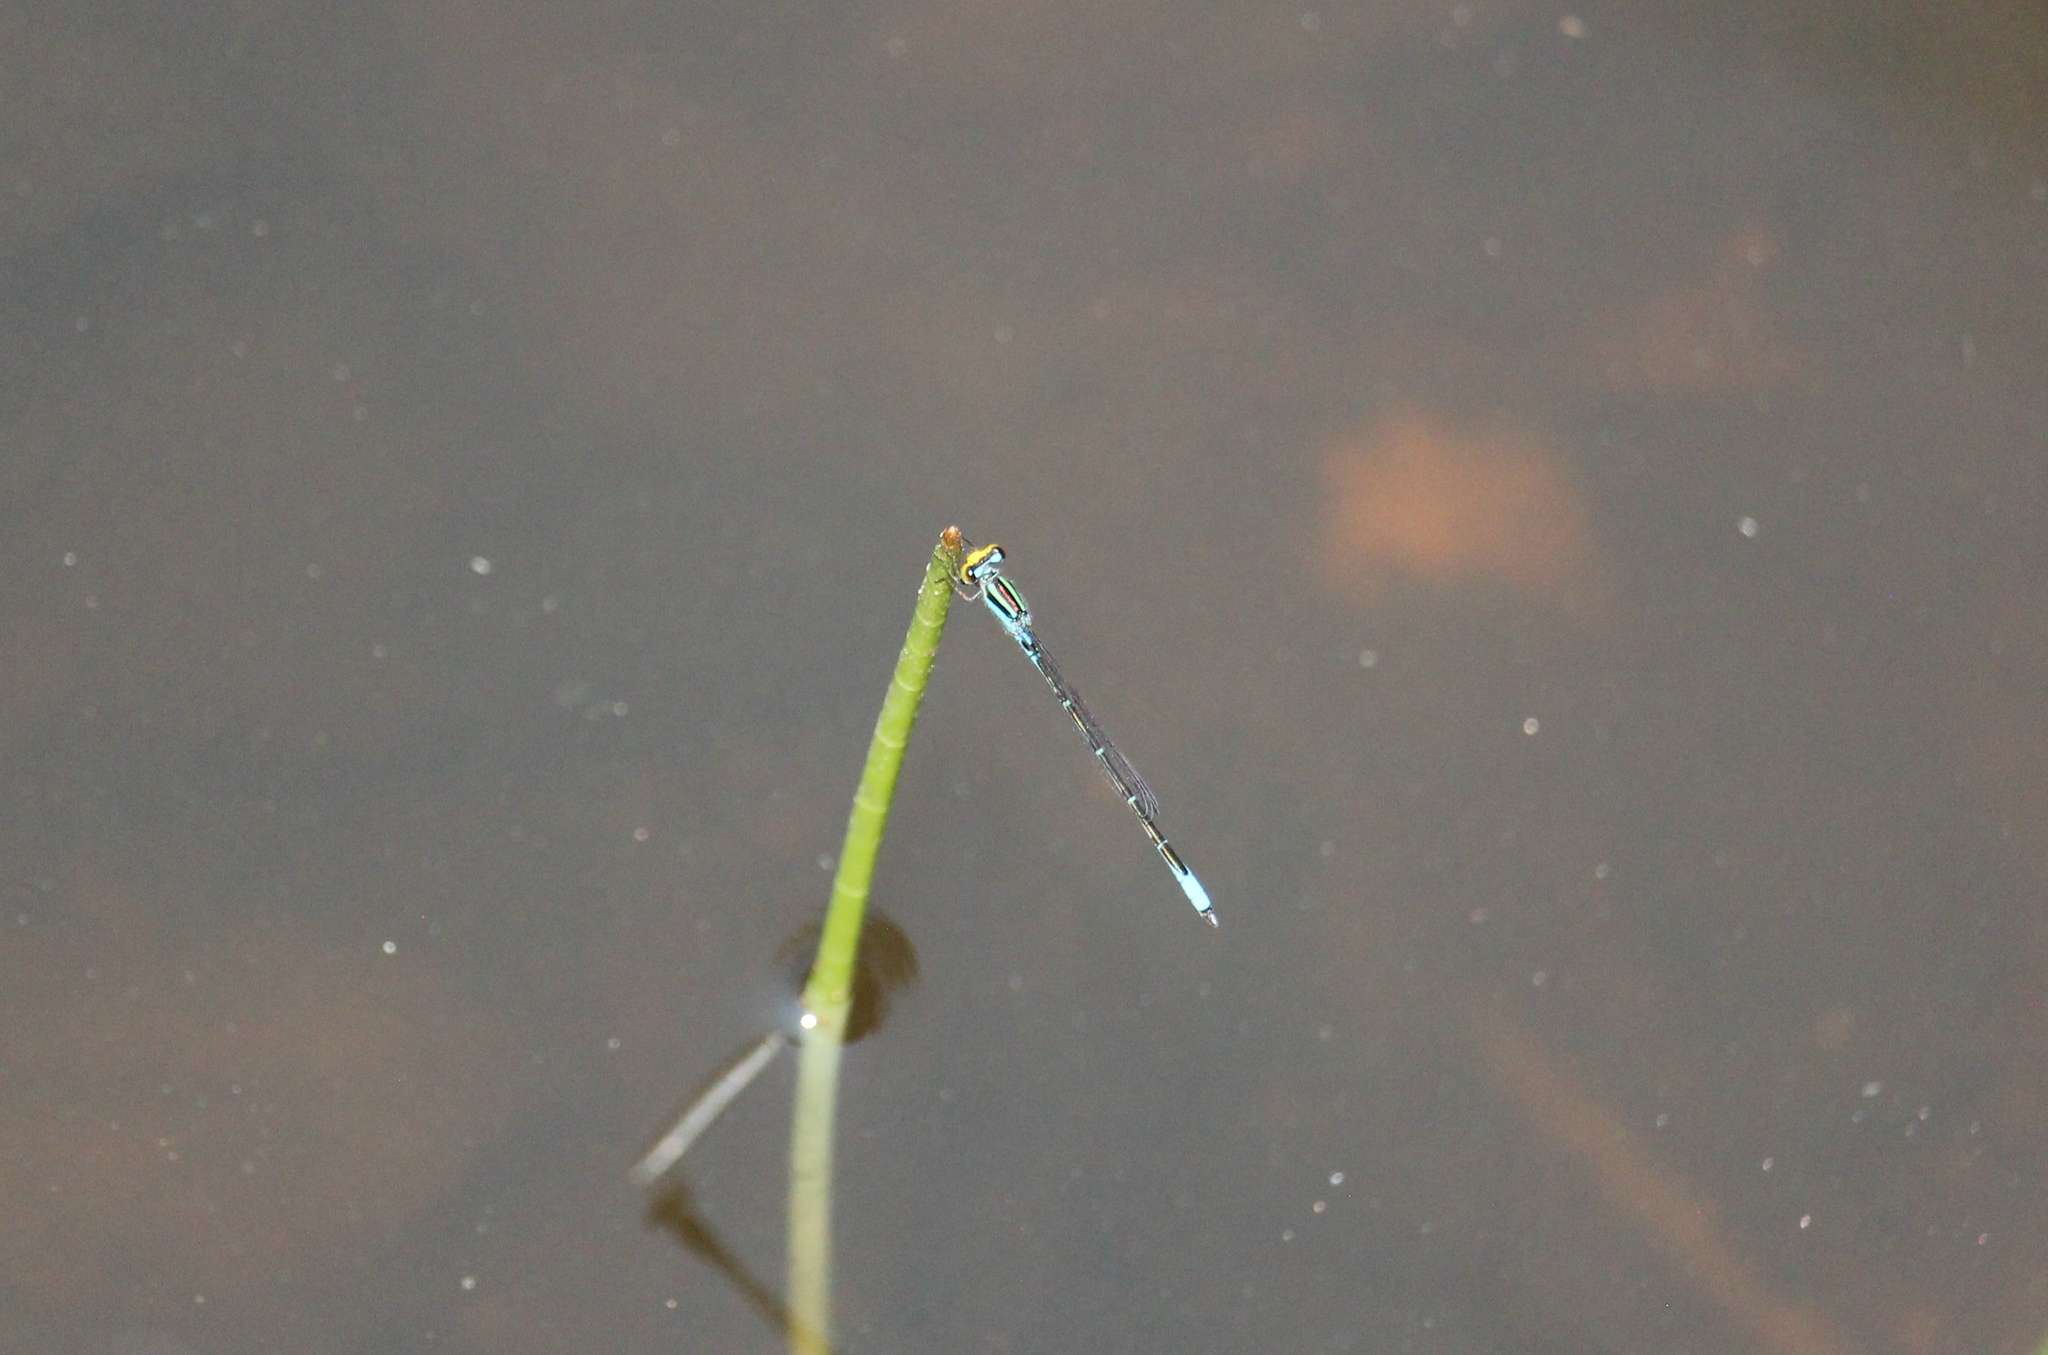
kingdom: Animalia
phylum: Arthropoda
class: Insecta
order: Odonata
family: Coenagrionidae
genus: Neoerythromma
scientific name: Neoerythromma cultellatum
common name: Caribbean yellowface
